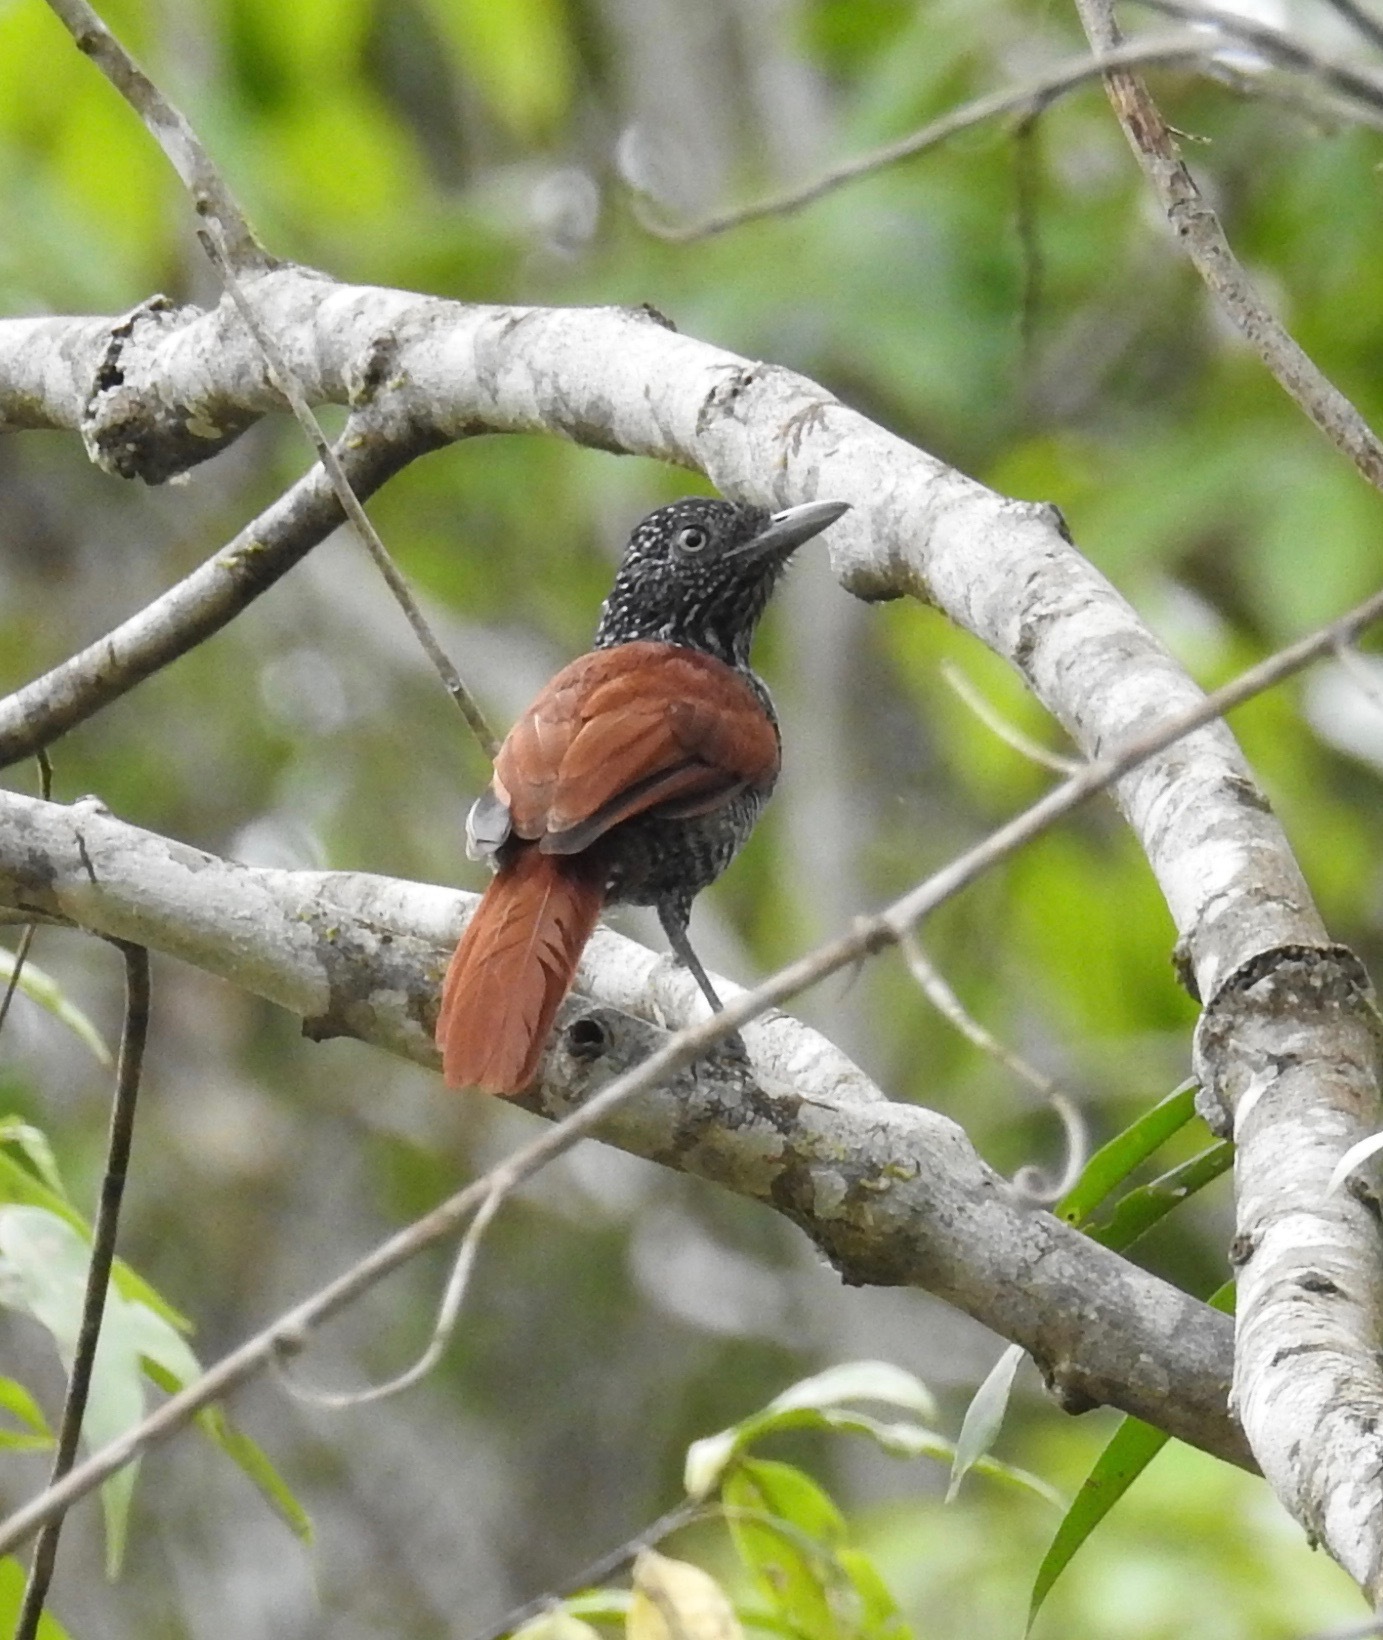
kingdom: Animalia
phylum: Chordata
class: Aves
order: Passeriformes
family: Thamnophilidae
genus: Thamnophilus
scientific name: Thamnophilus palliatus
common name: Chestnut-backed antshrike
